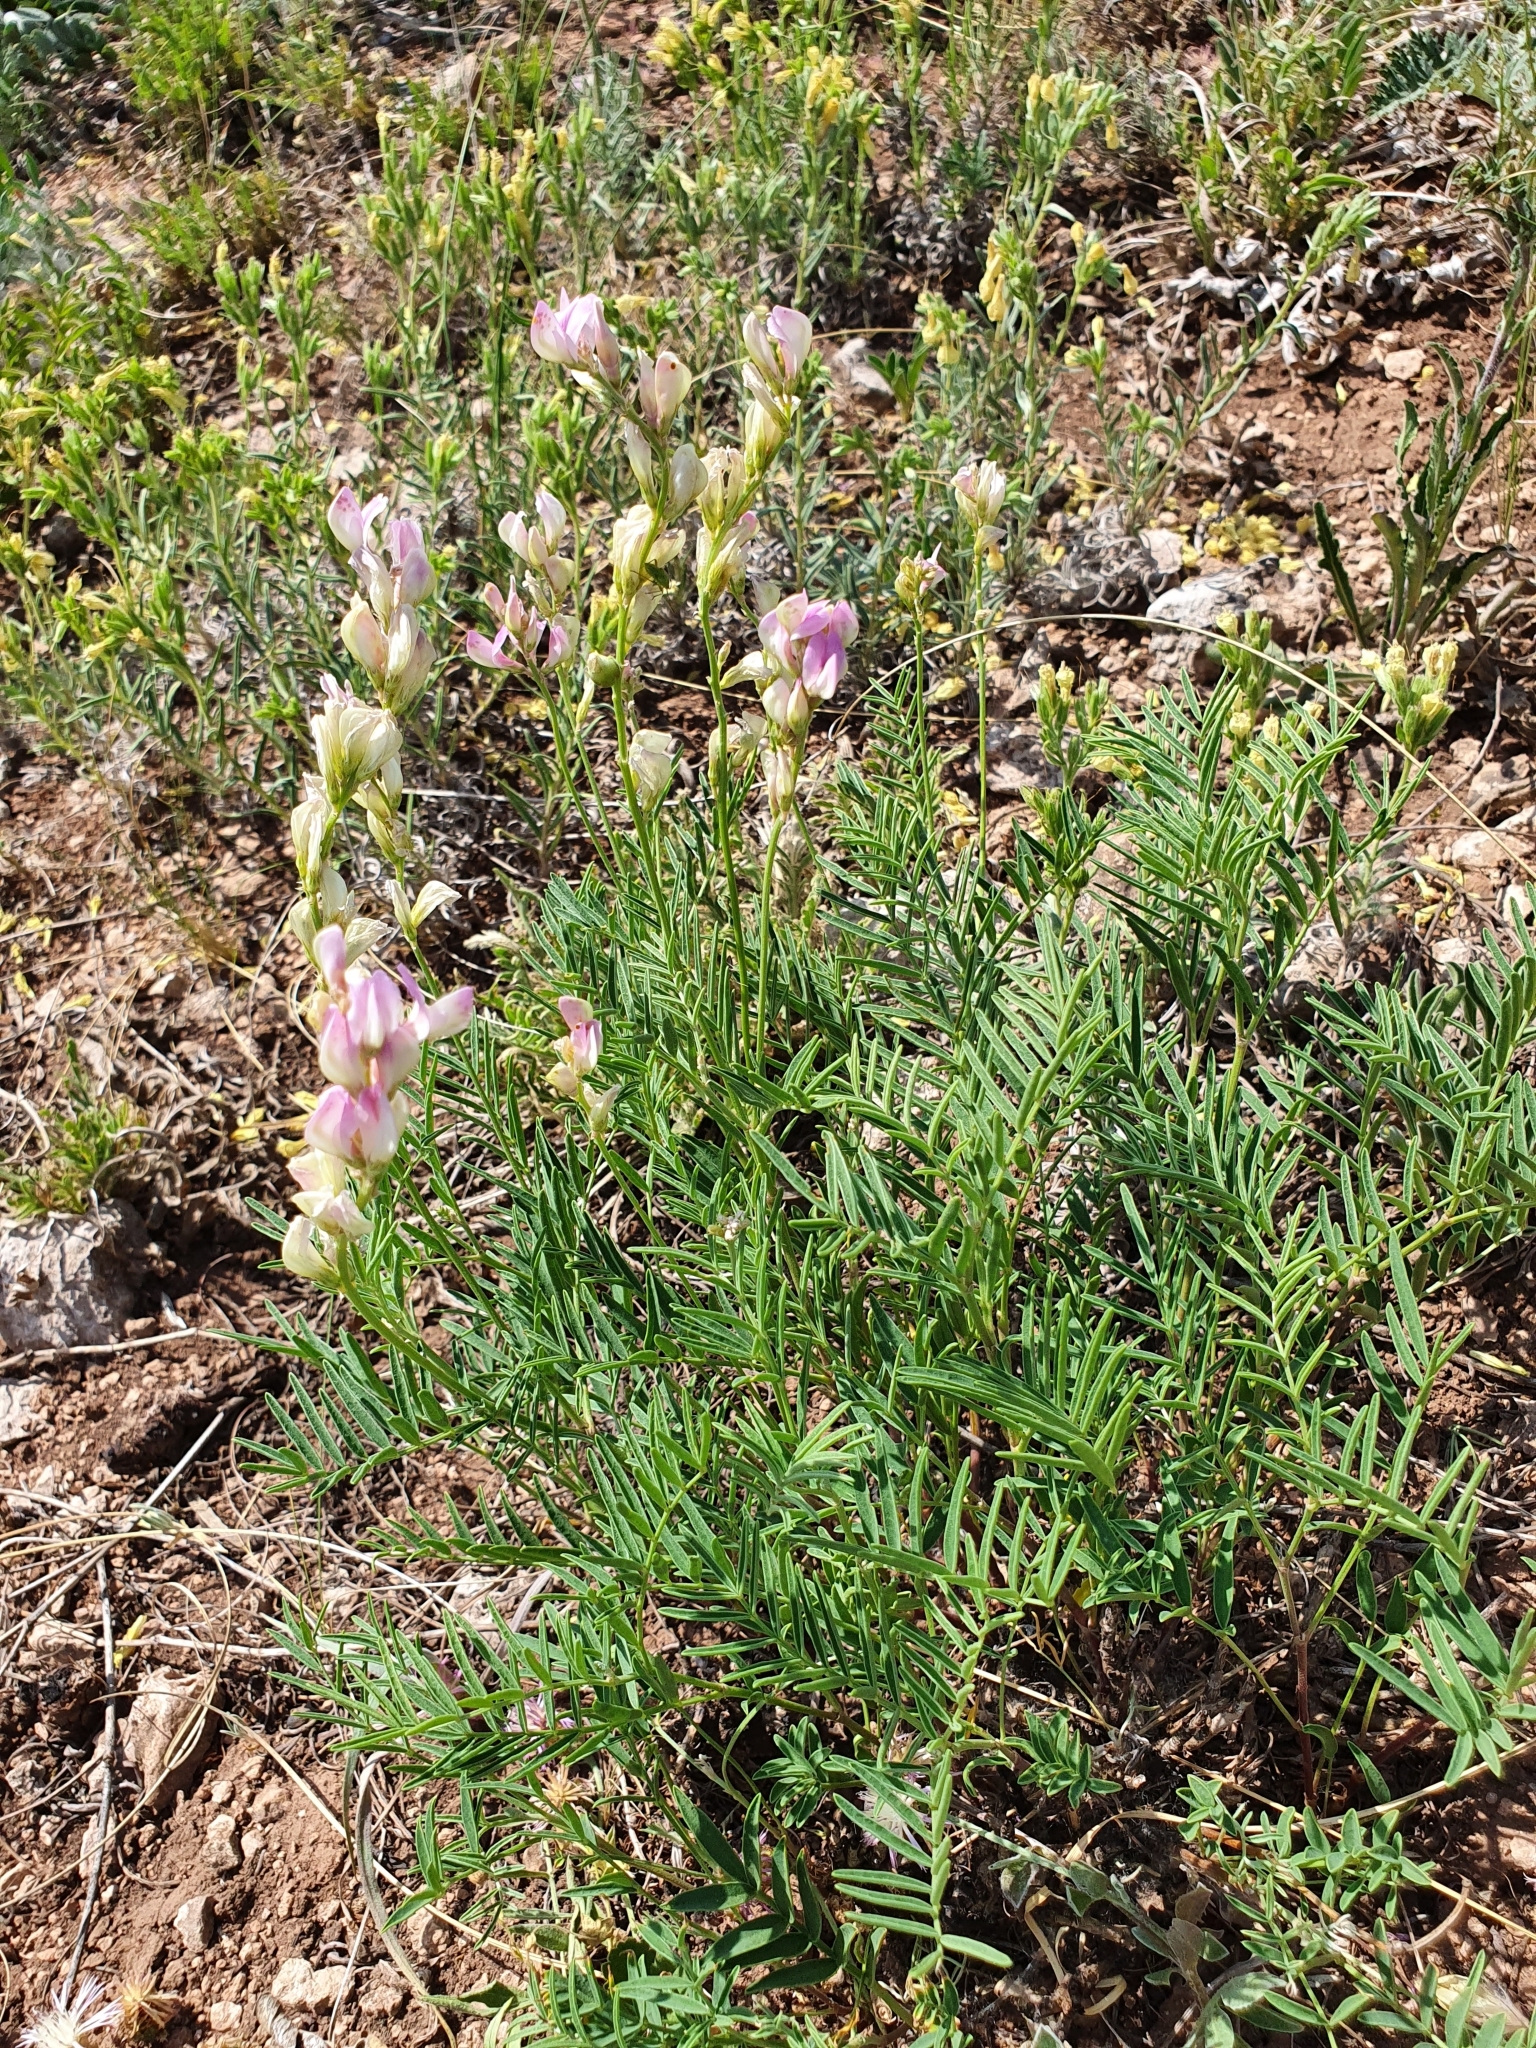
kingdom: Plantae
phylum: Tracheophyta
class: Magnoliopsida
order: Fabales
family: Fabaceae
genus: Hedysarum
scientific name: Hedysarum razoumovianum
